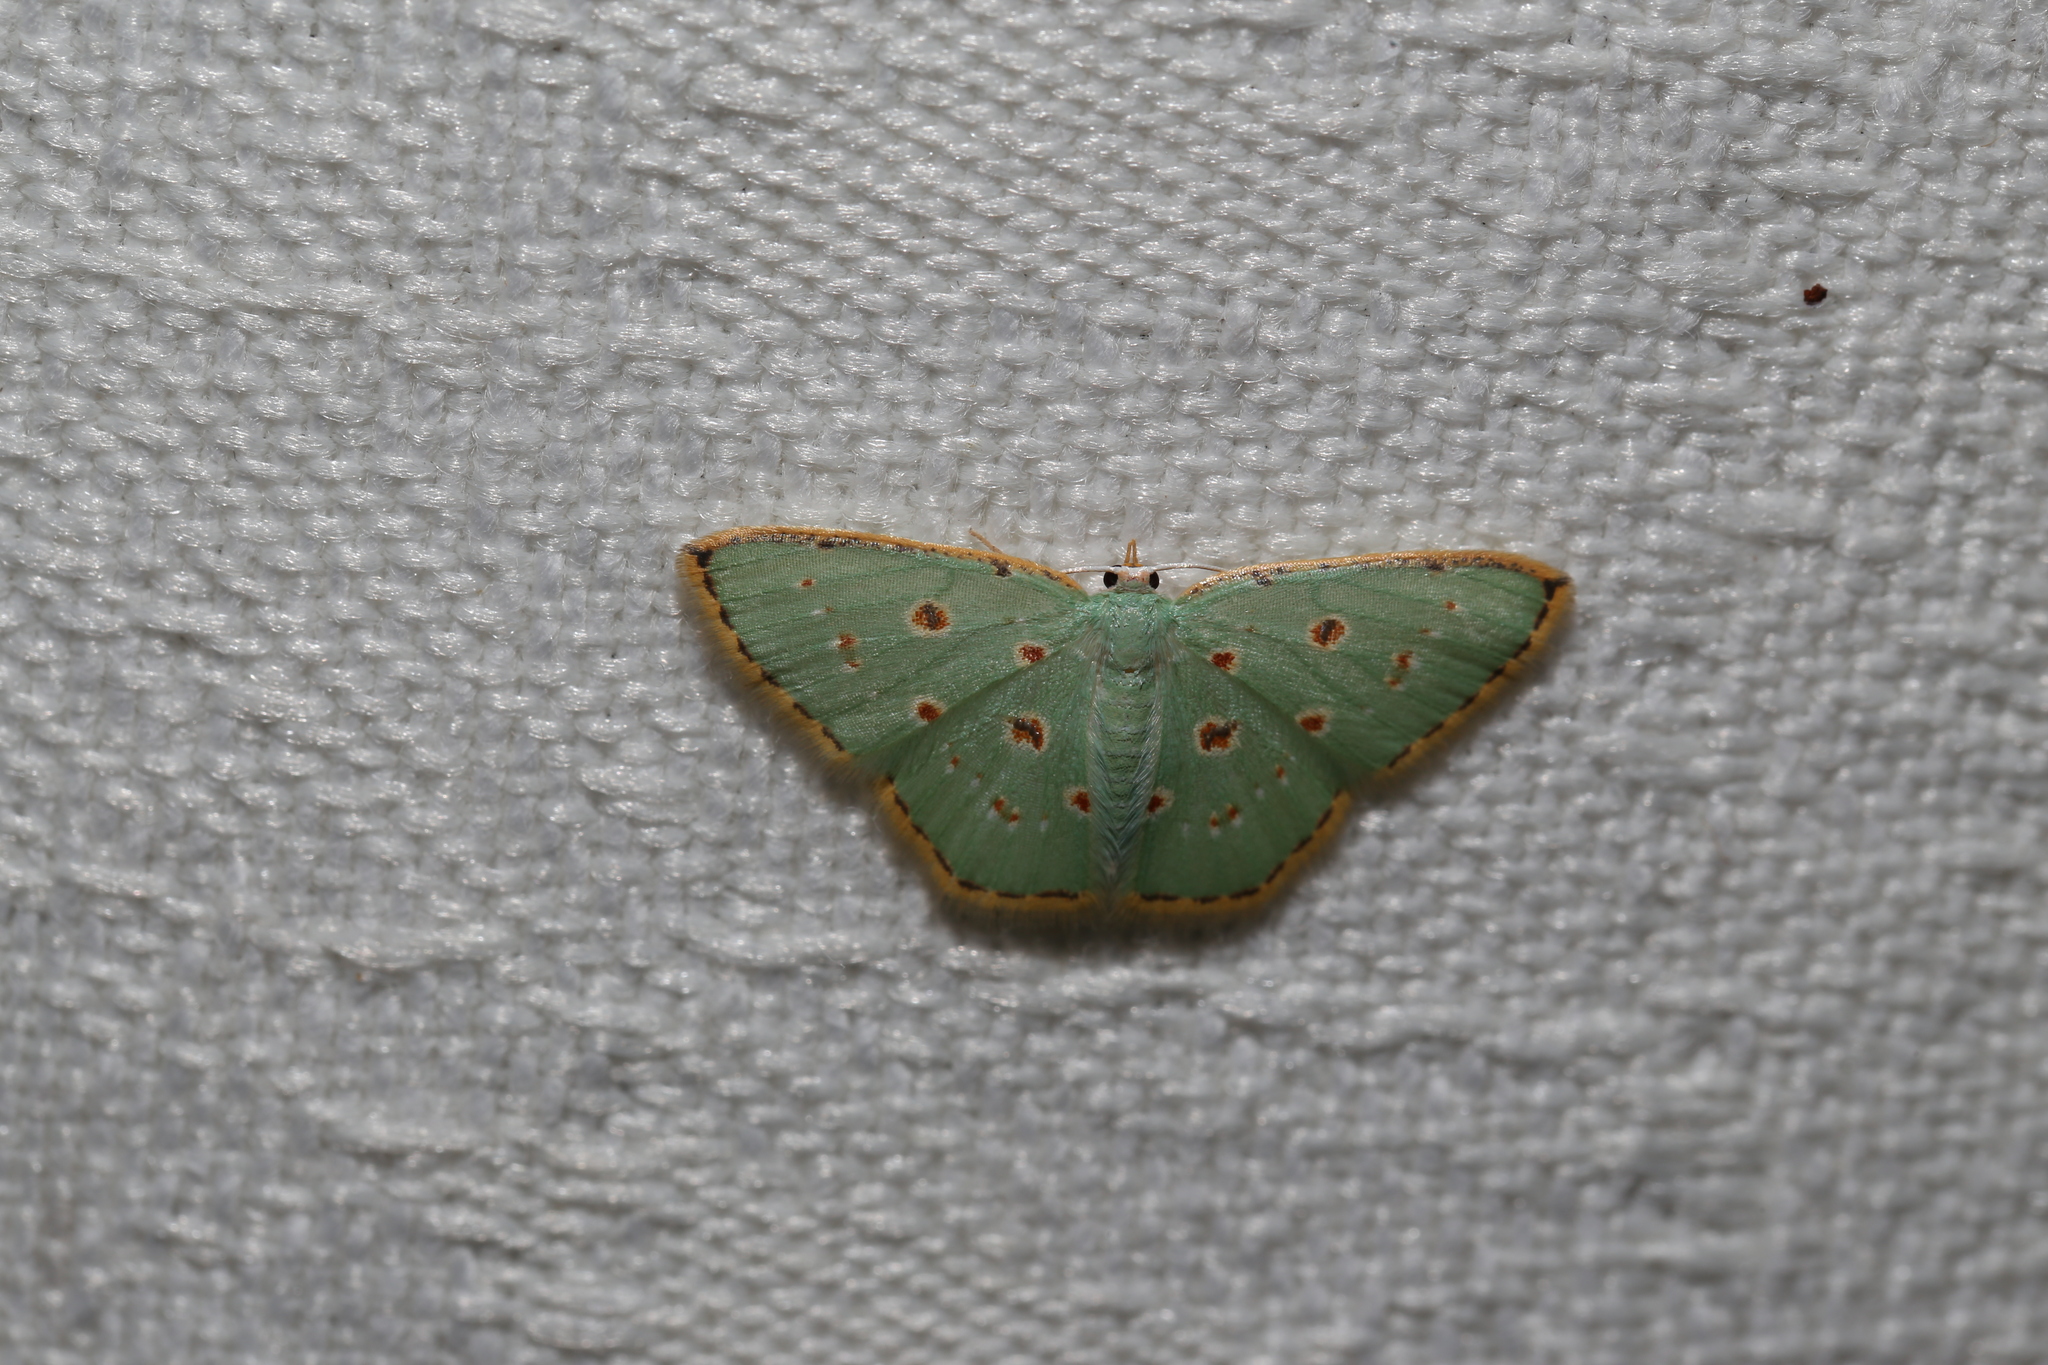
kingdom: Animalia
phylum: Arthropoda
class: Insecta
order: Lepidoptera
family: Geometridae
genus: Comostola
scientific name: Comostola laesaria
